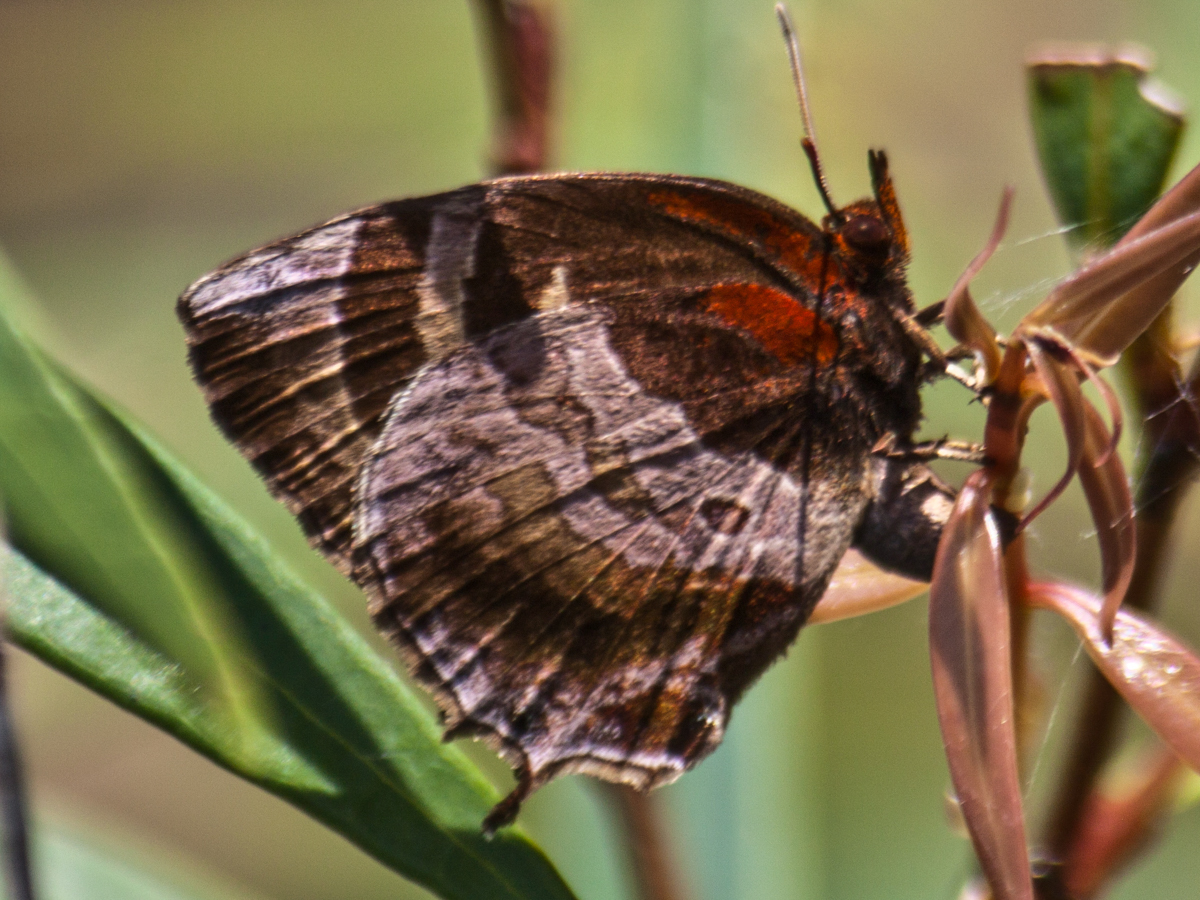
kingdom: Animalia
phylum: Arthropoda
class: Insecta
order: Lepidoptera
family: Lycaenidae
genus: Flos
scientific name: Flos apidanus
